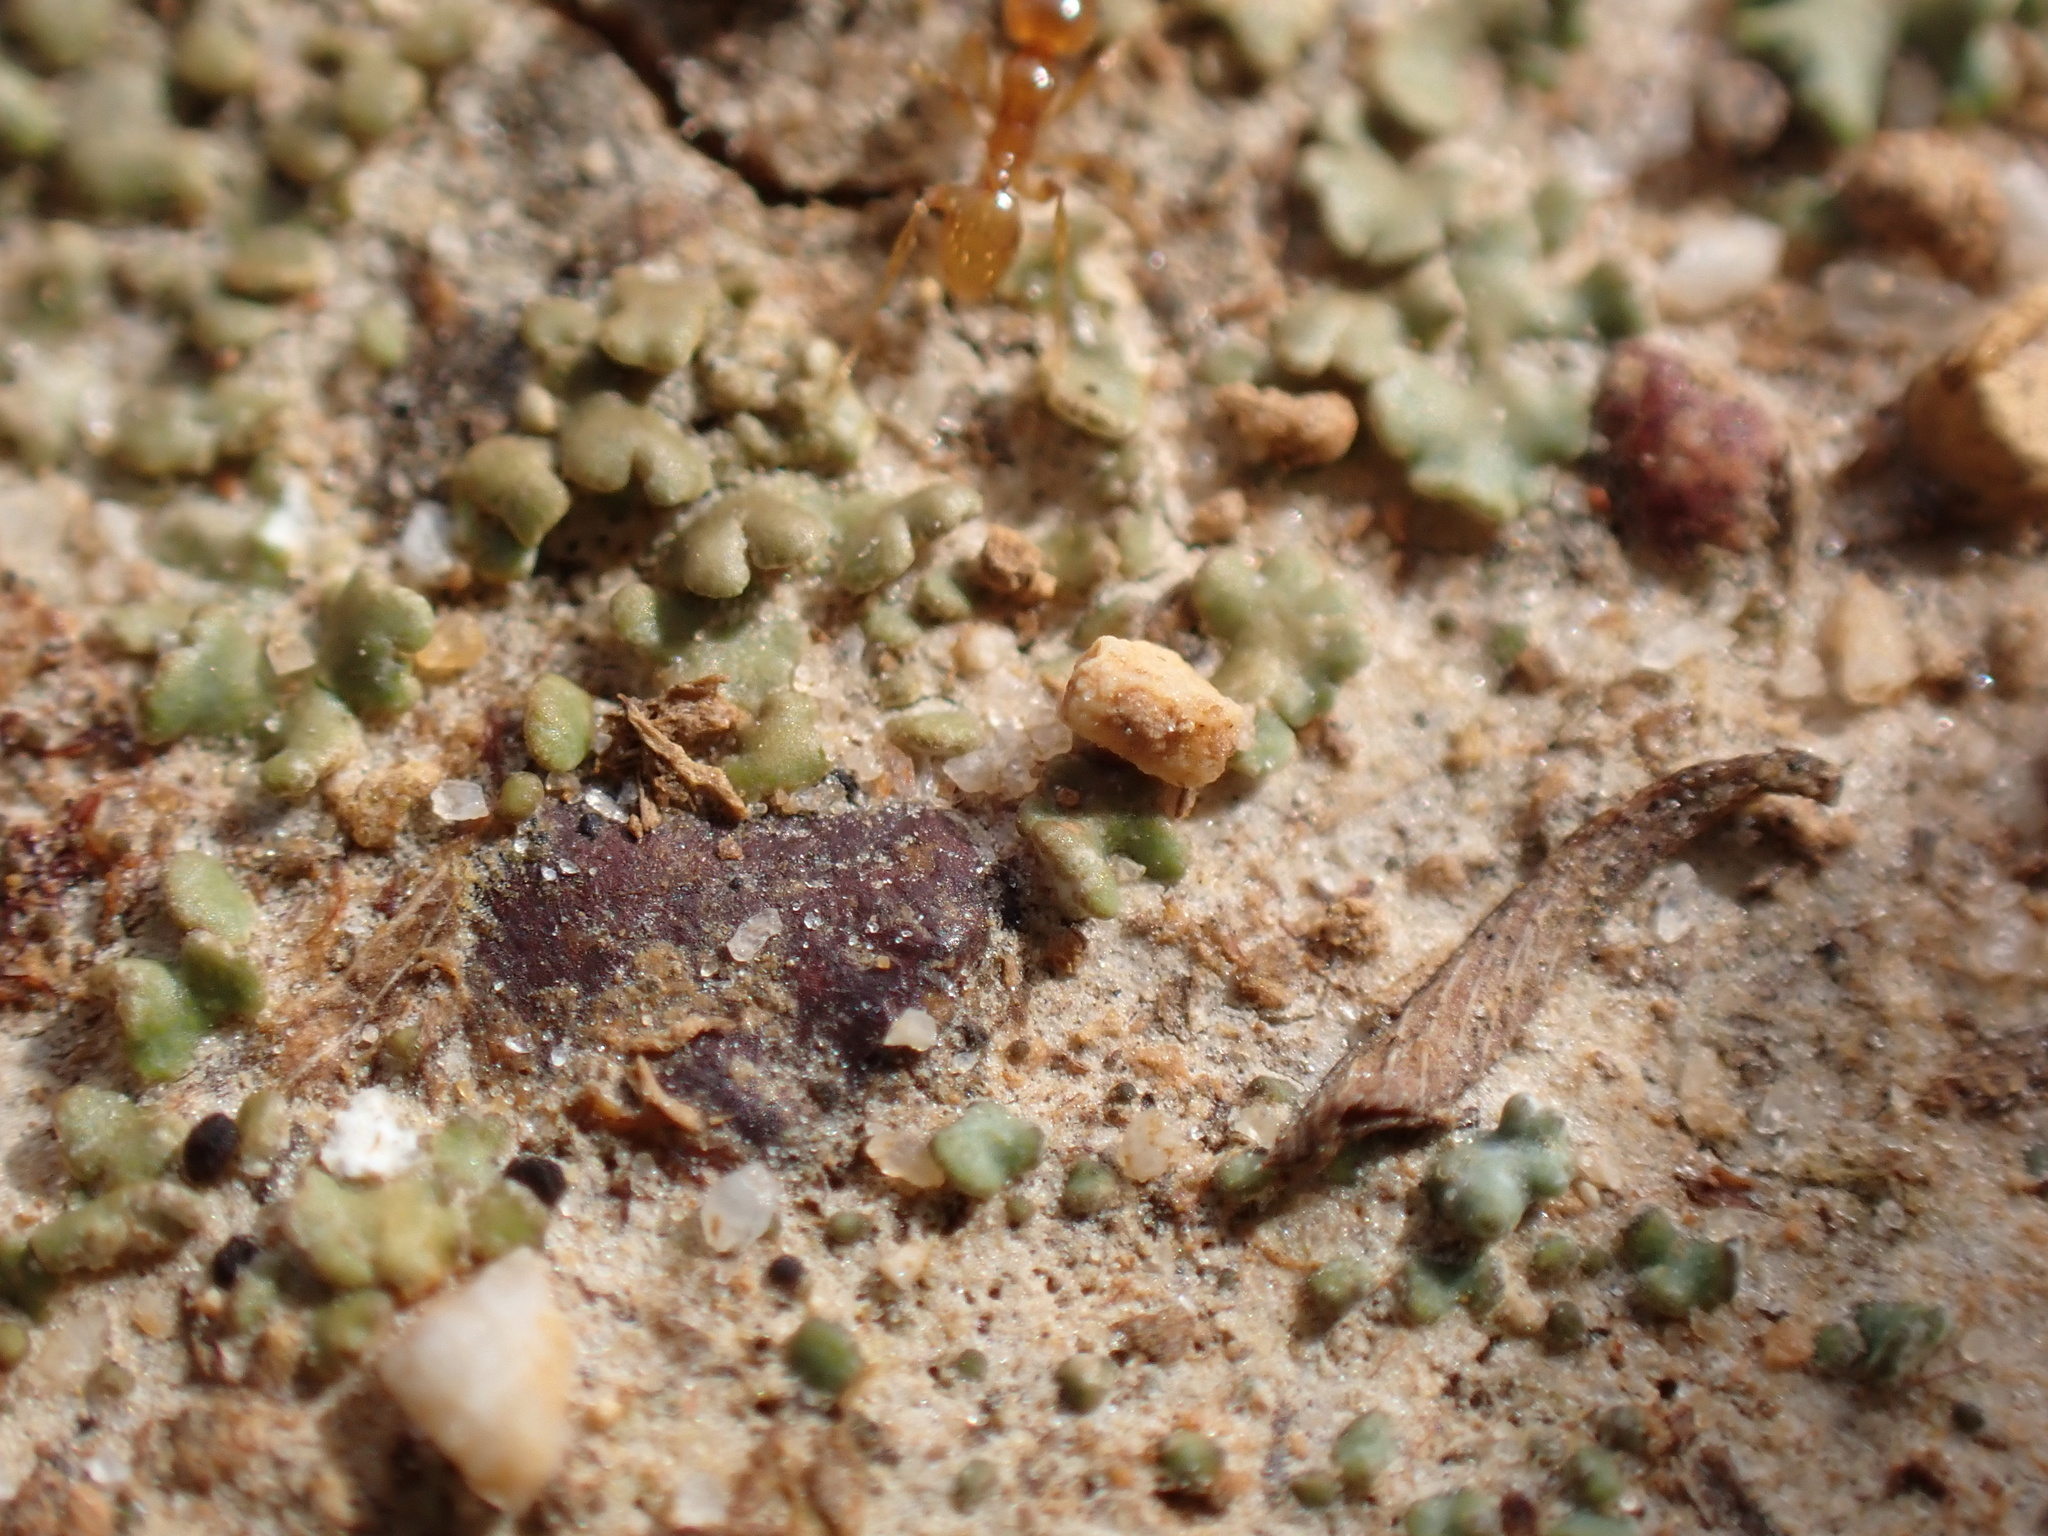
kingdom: Animalia
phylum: Arthropoda
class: Insecta
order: Hymenoptera
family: Formicidae
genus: Pheidole
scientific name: Pheidole tysoni
